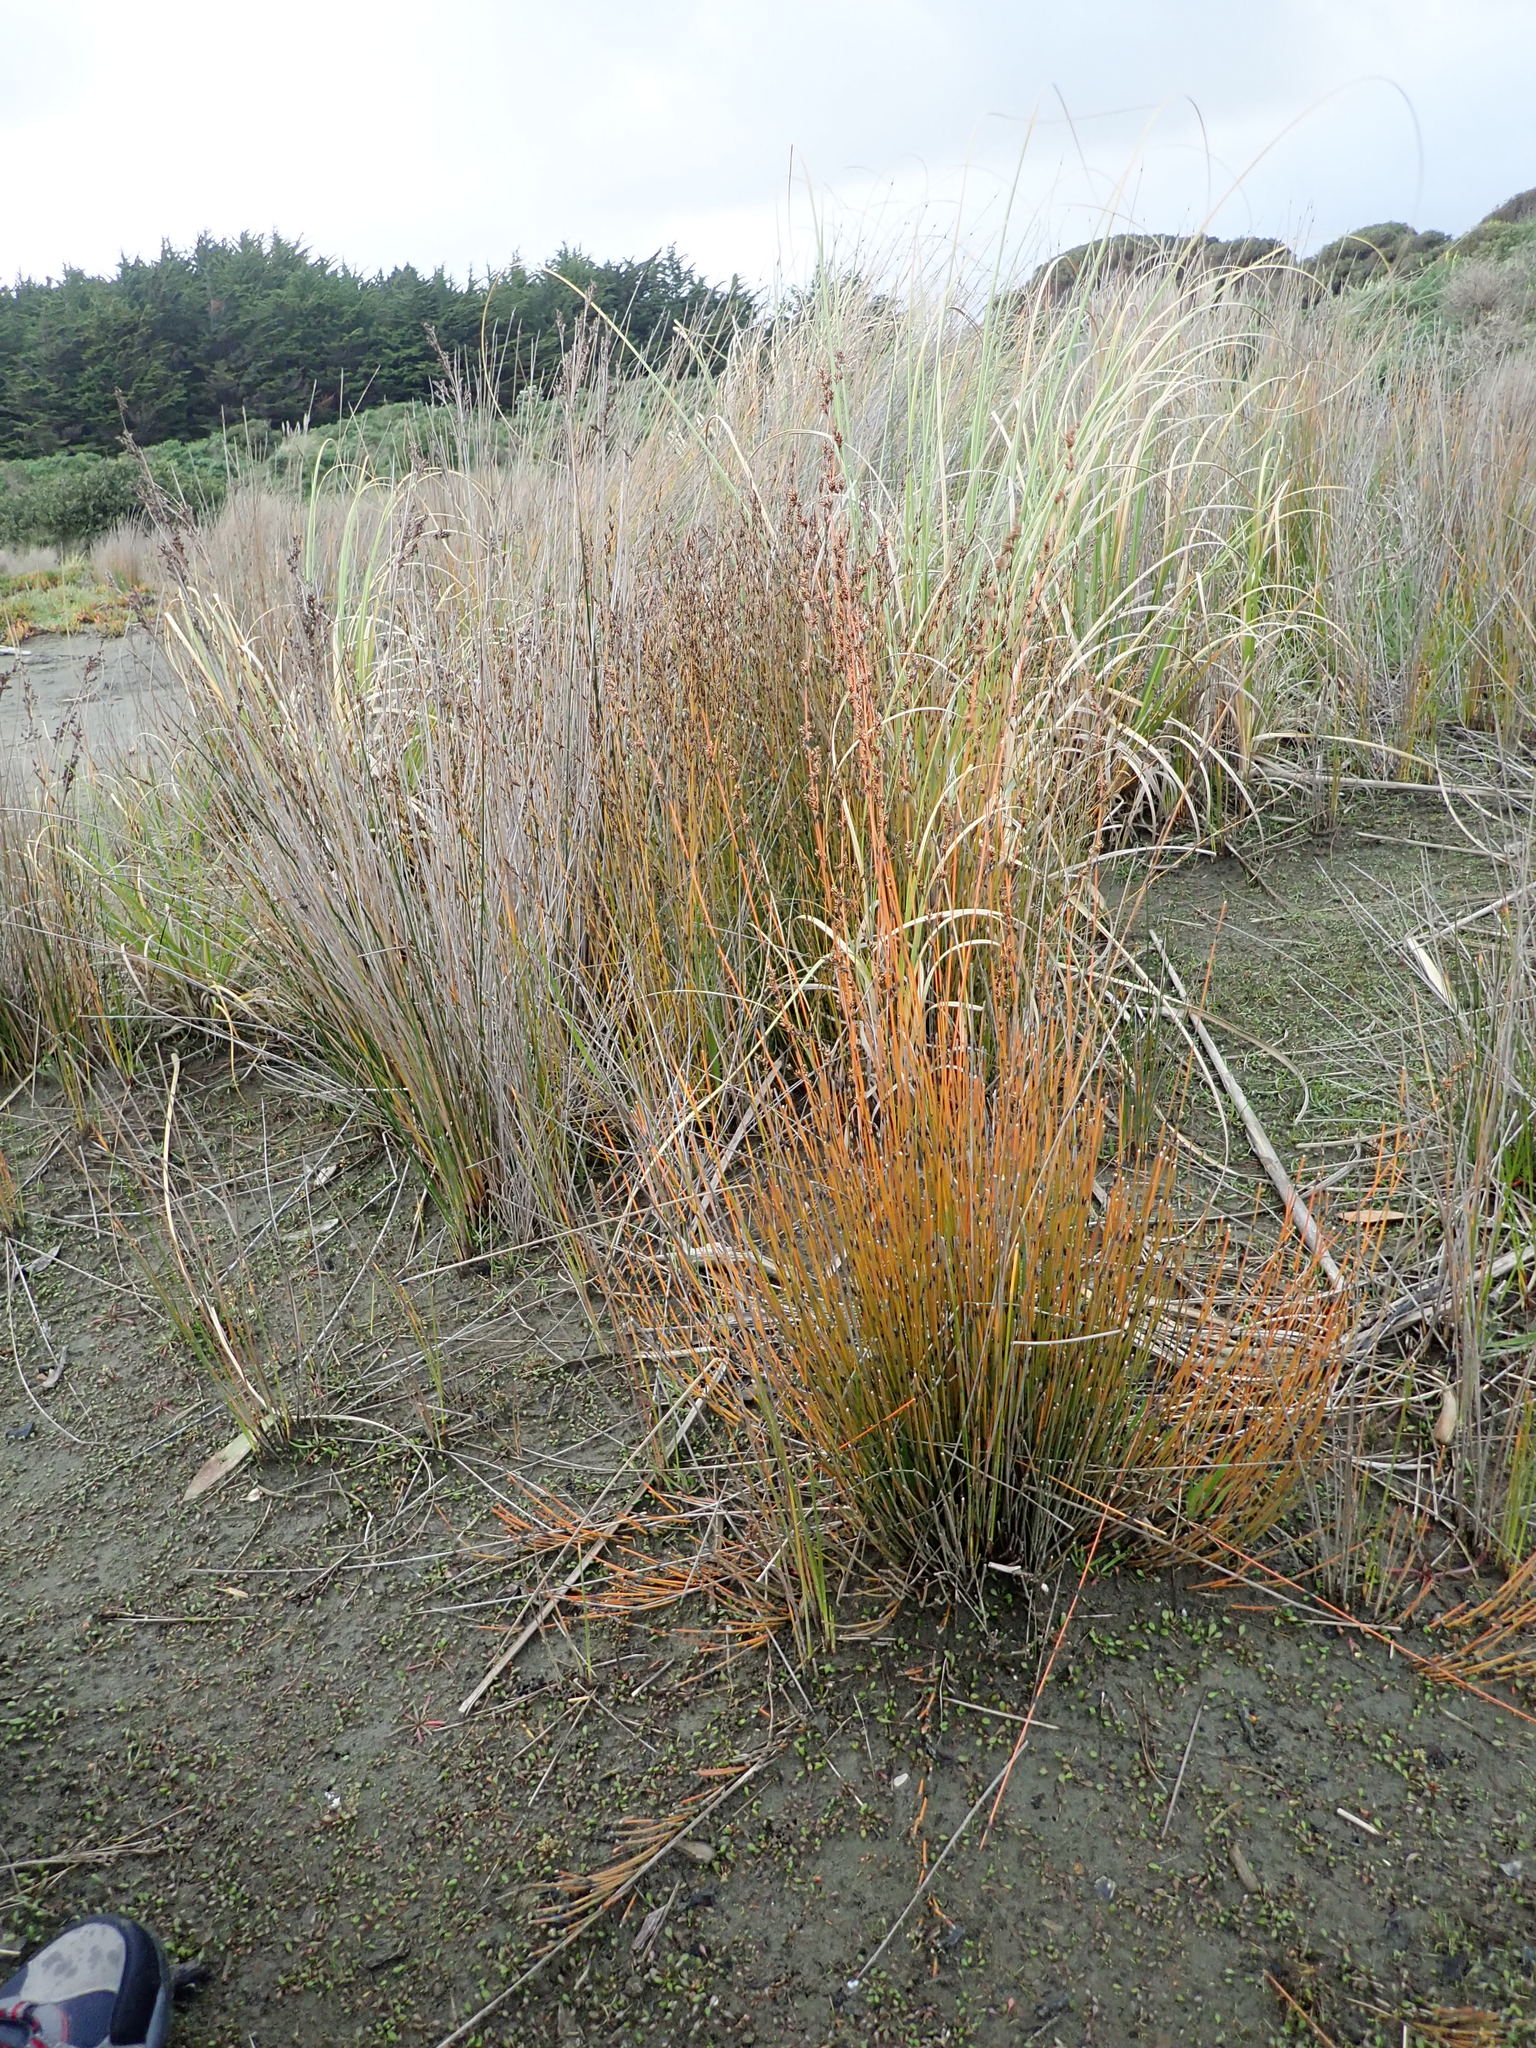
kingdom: Plantae
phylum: Tracheophyta
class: Liliopsida
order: Poales
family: Restionaceae
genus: Apodasmia
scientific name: Apodasmia similis
